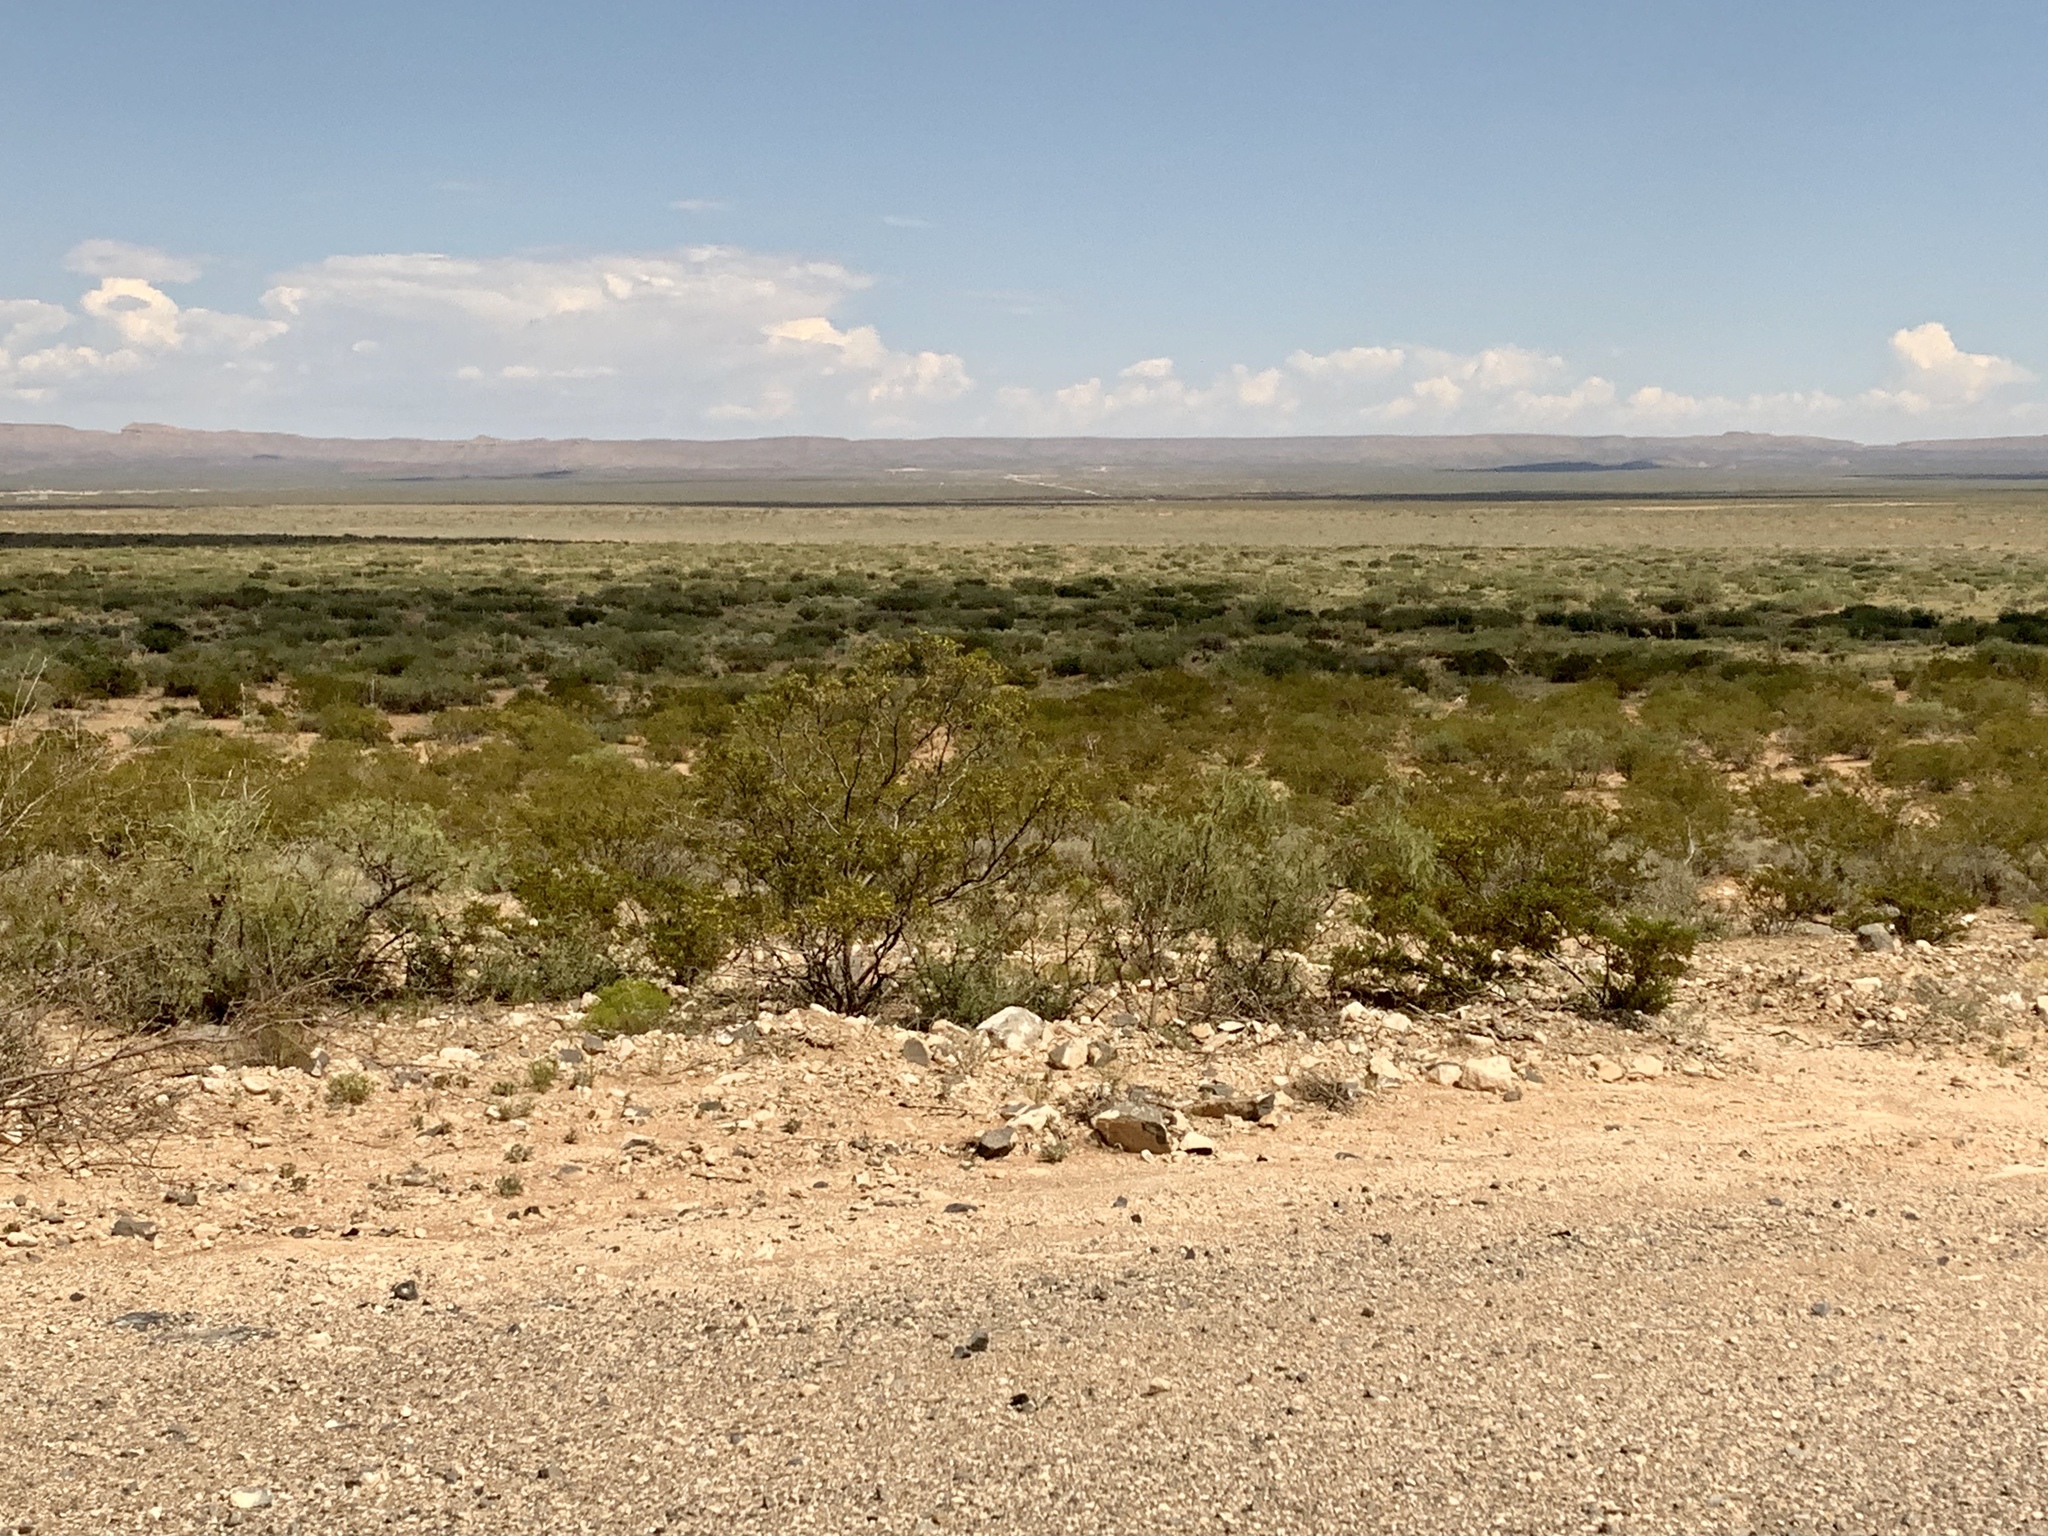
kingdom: Plantae
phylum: Tracheophyta
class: Magnoliopsida
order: Zygophyllales
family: Zygophyllaceae
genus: Larrea
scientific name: Larrea tridentata
